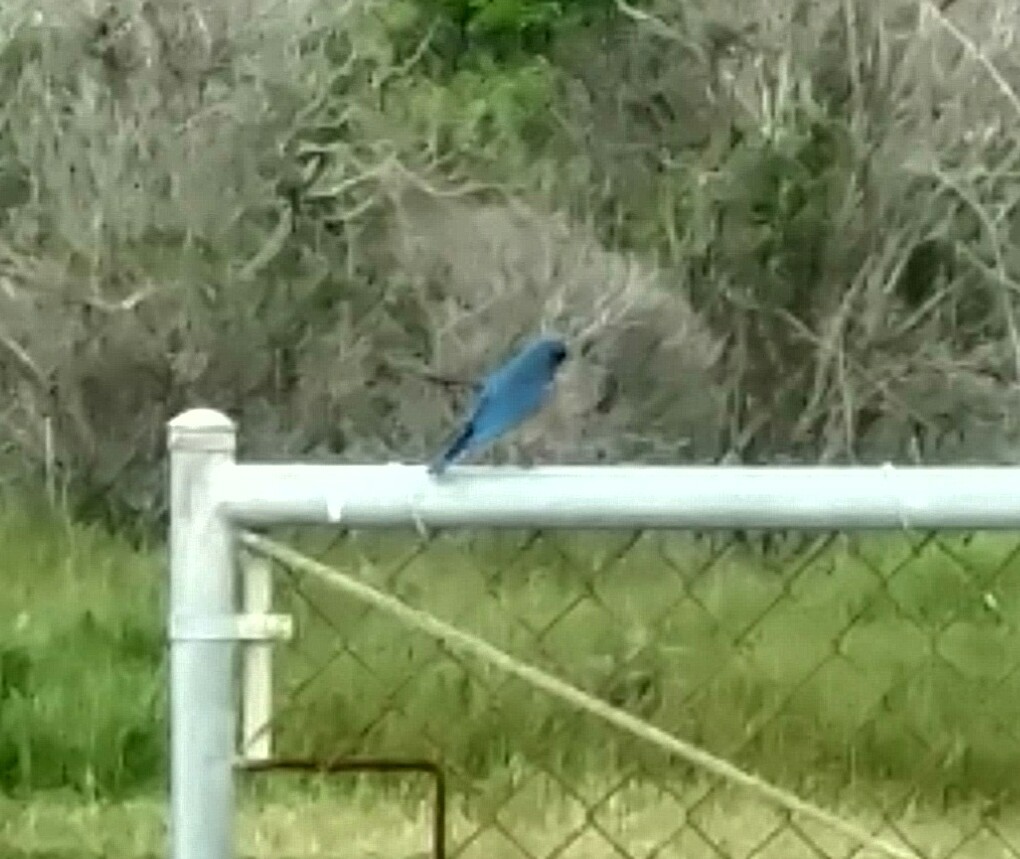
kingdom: Animalia
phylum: Chordata
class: Aves
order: Passeriformes
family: Turdidae
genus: Sialia
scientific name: Sialia mexicana
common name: Western bluebird
